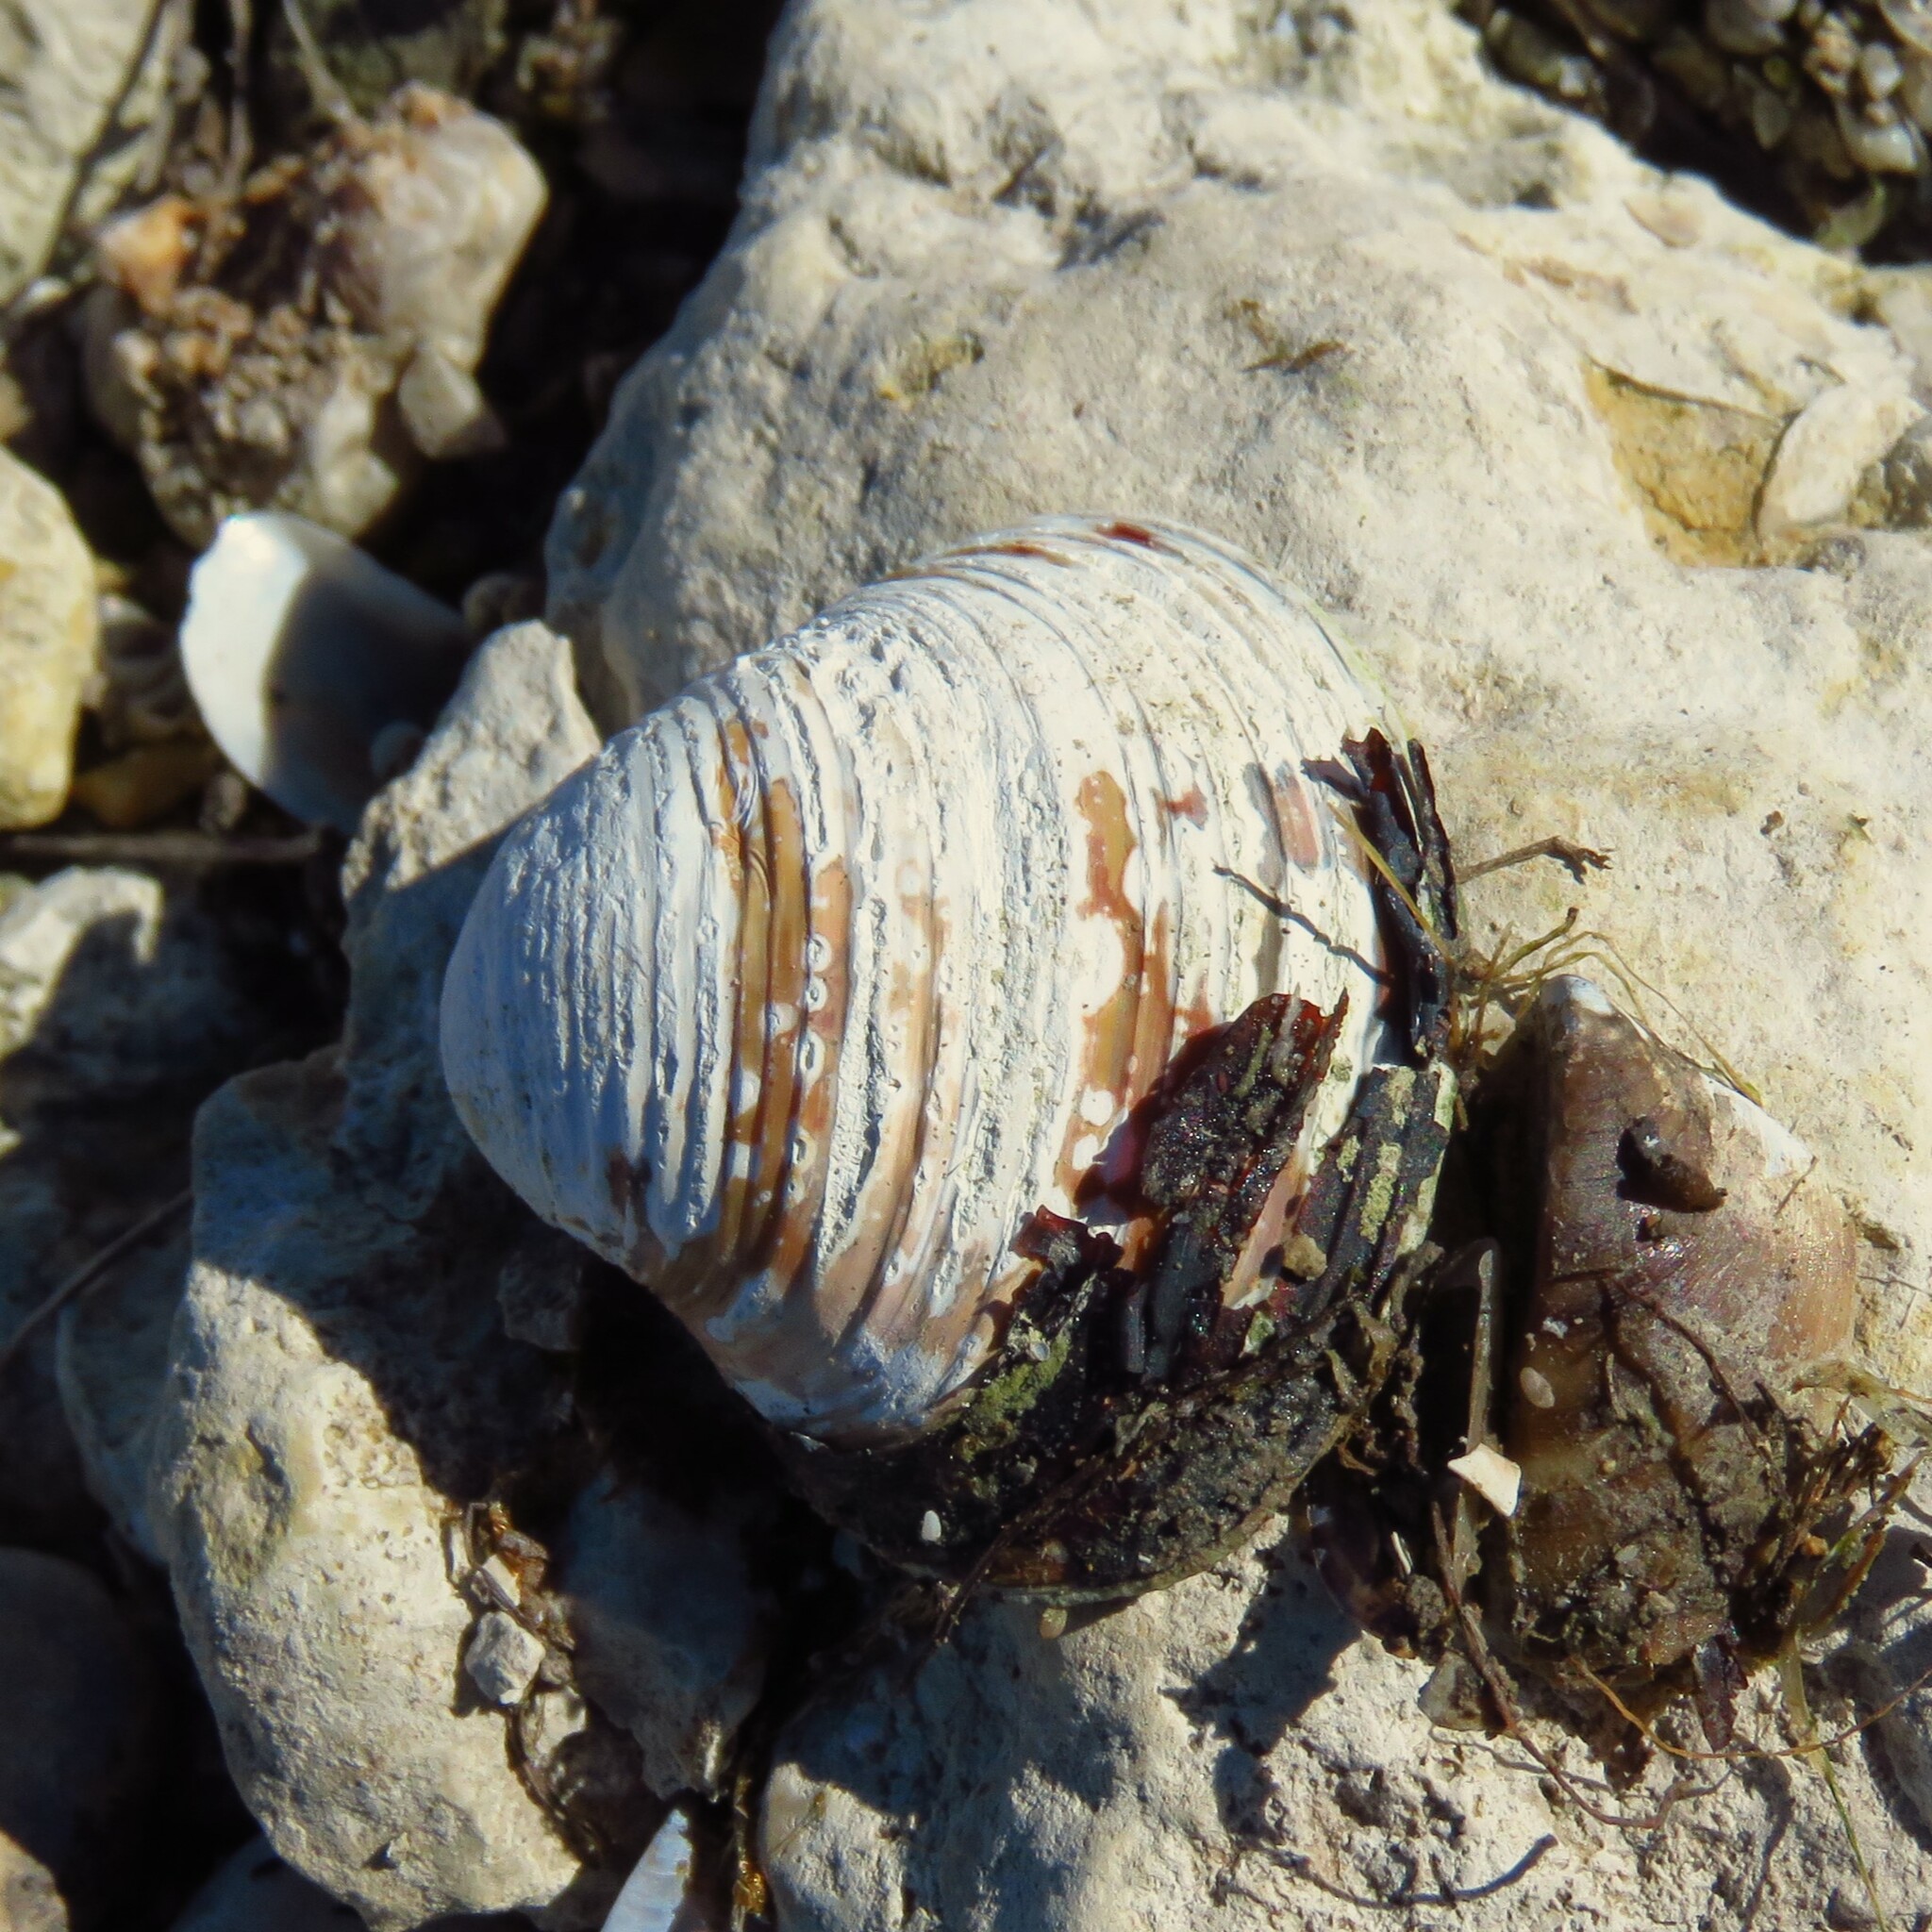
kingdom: Animalia
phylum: Mollusca
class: Bivalvia
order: Venerida
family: Cyrenidae
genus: Corbicula
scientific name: Corbicula fluminea
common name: Asian clam
